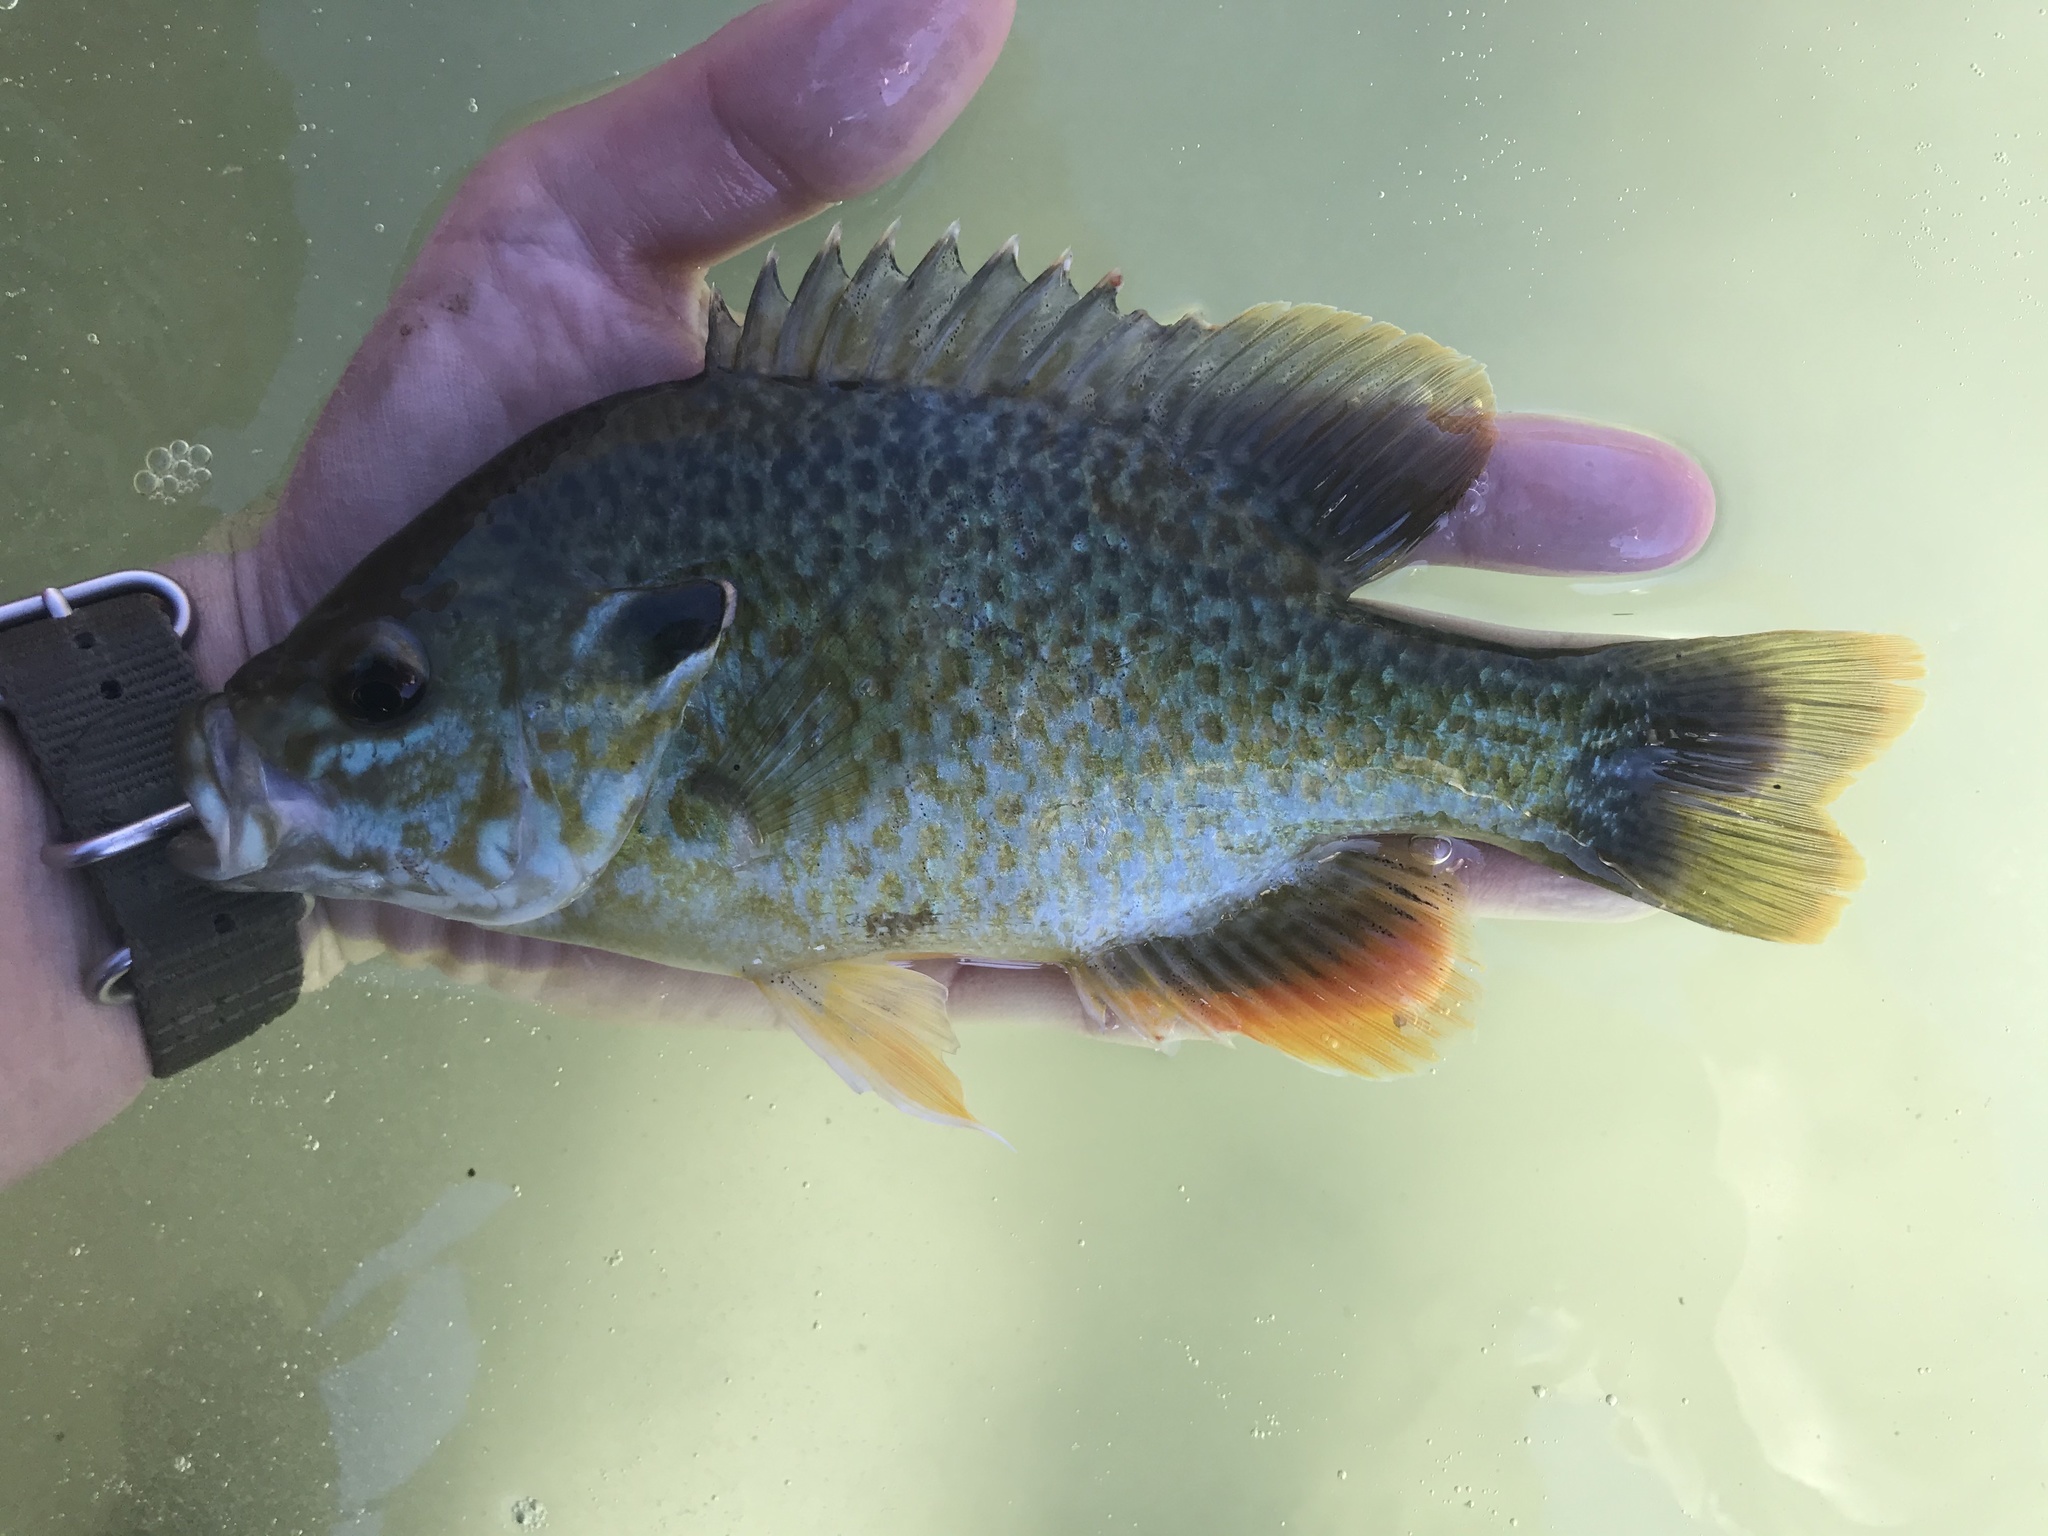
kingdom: Animalia
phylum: Chordata
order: Perciformes
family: Centrarchidae
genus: Lepomis
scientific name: Lepomis
